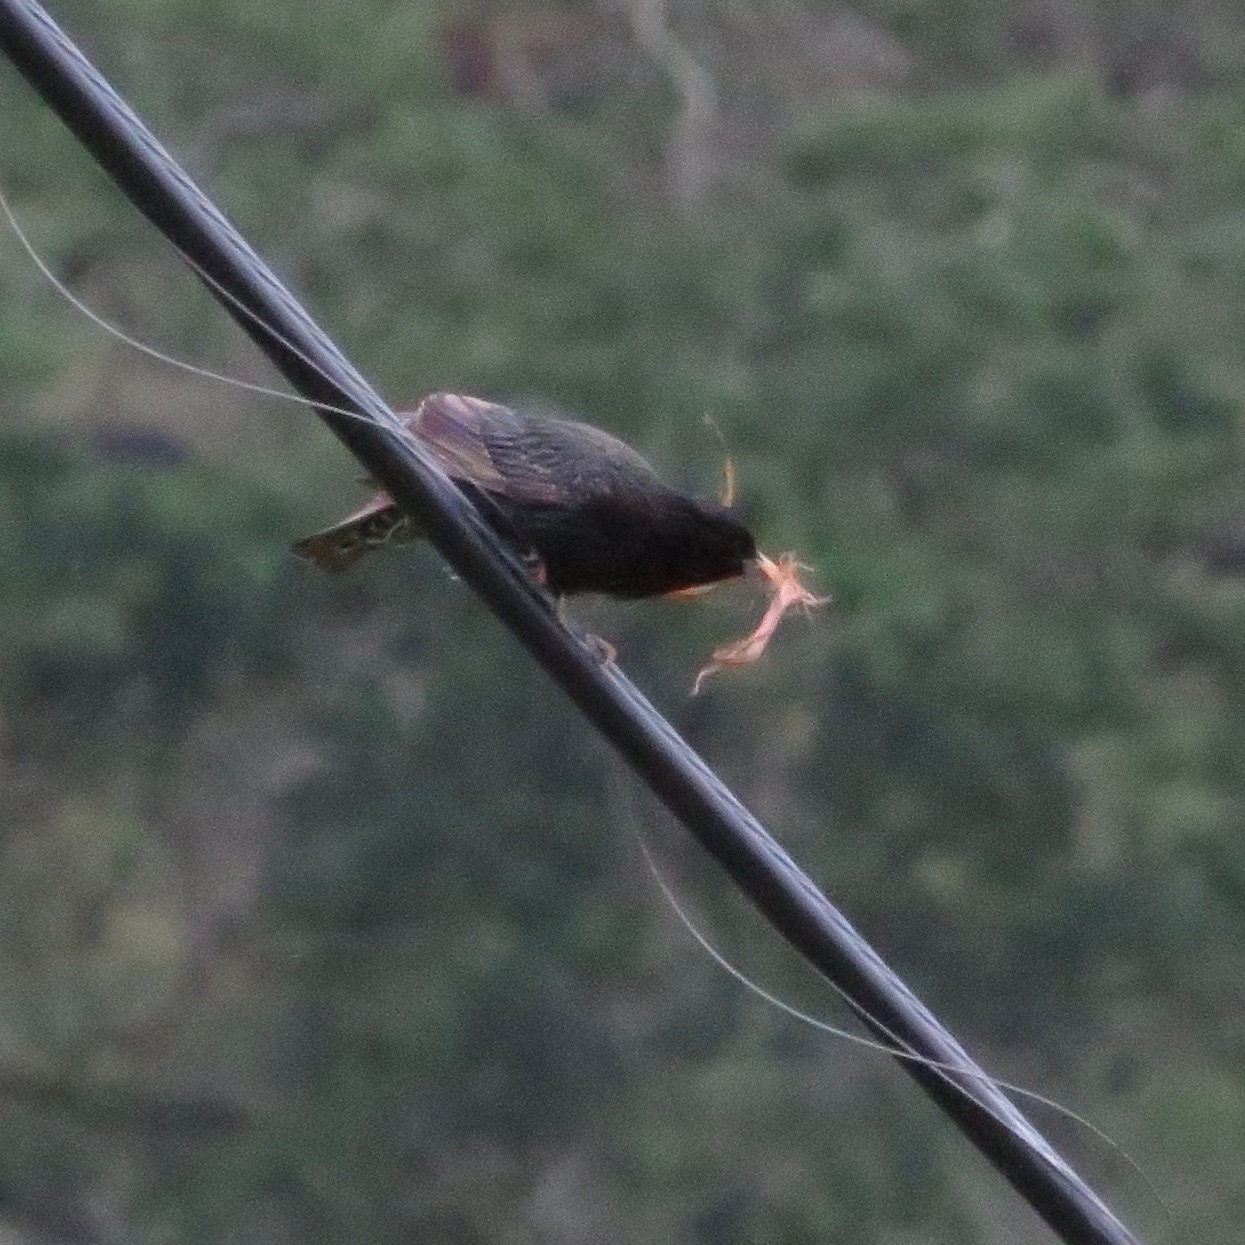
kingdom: Animalia
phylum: Chordata
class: Aves
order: Passeriformes
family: Sturnidae
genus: Sturnus
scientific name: Sturnus vulgaris
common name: Common starling
